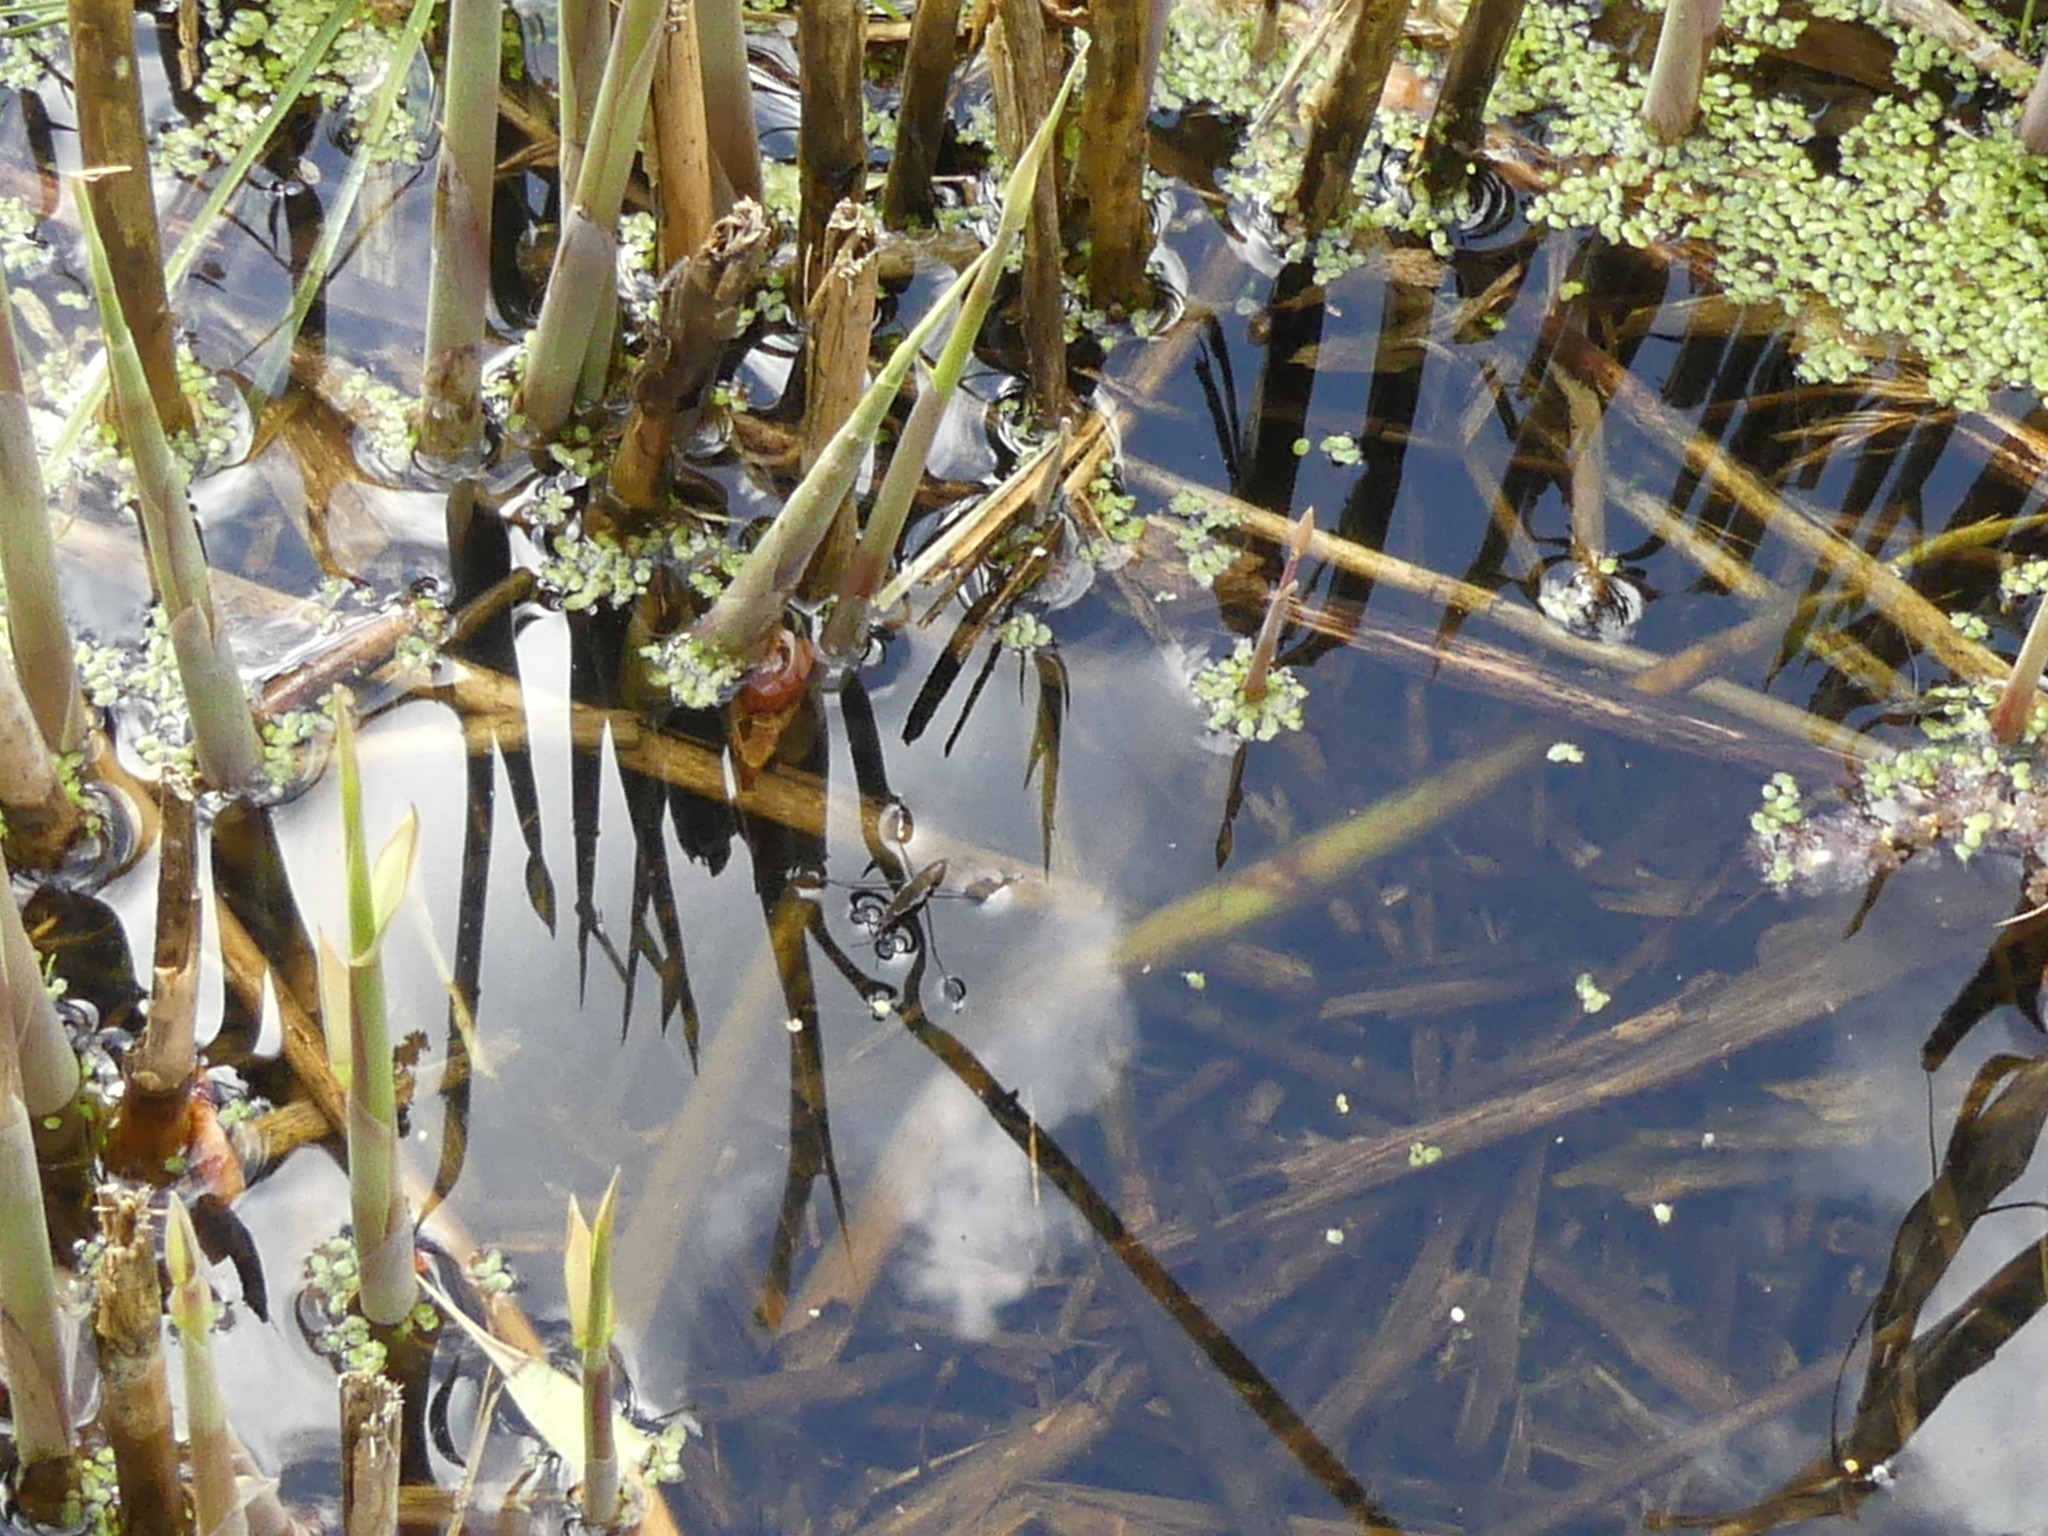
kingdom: Animalia
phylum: Arthropoda
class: Insecta
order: Hemiptera
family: Gerridae
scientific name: Gerridae
